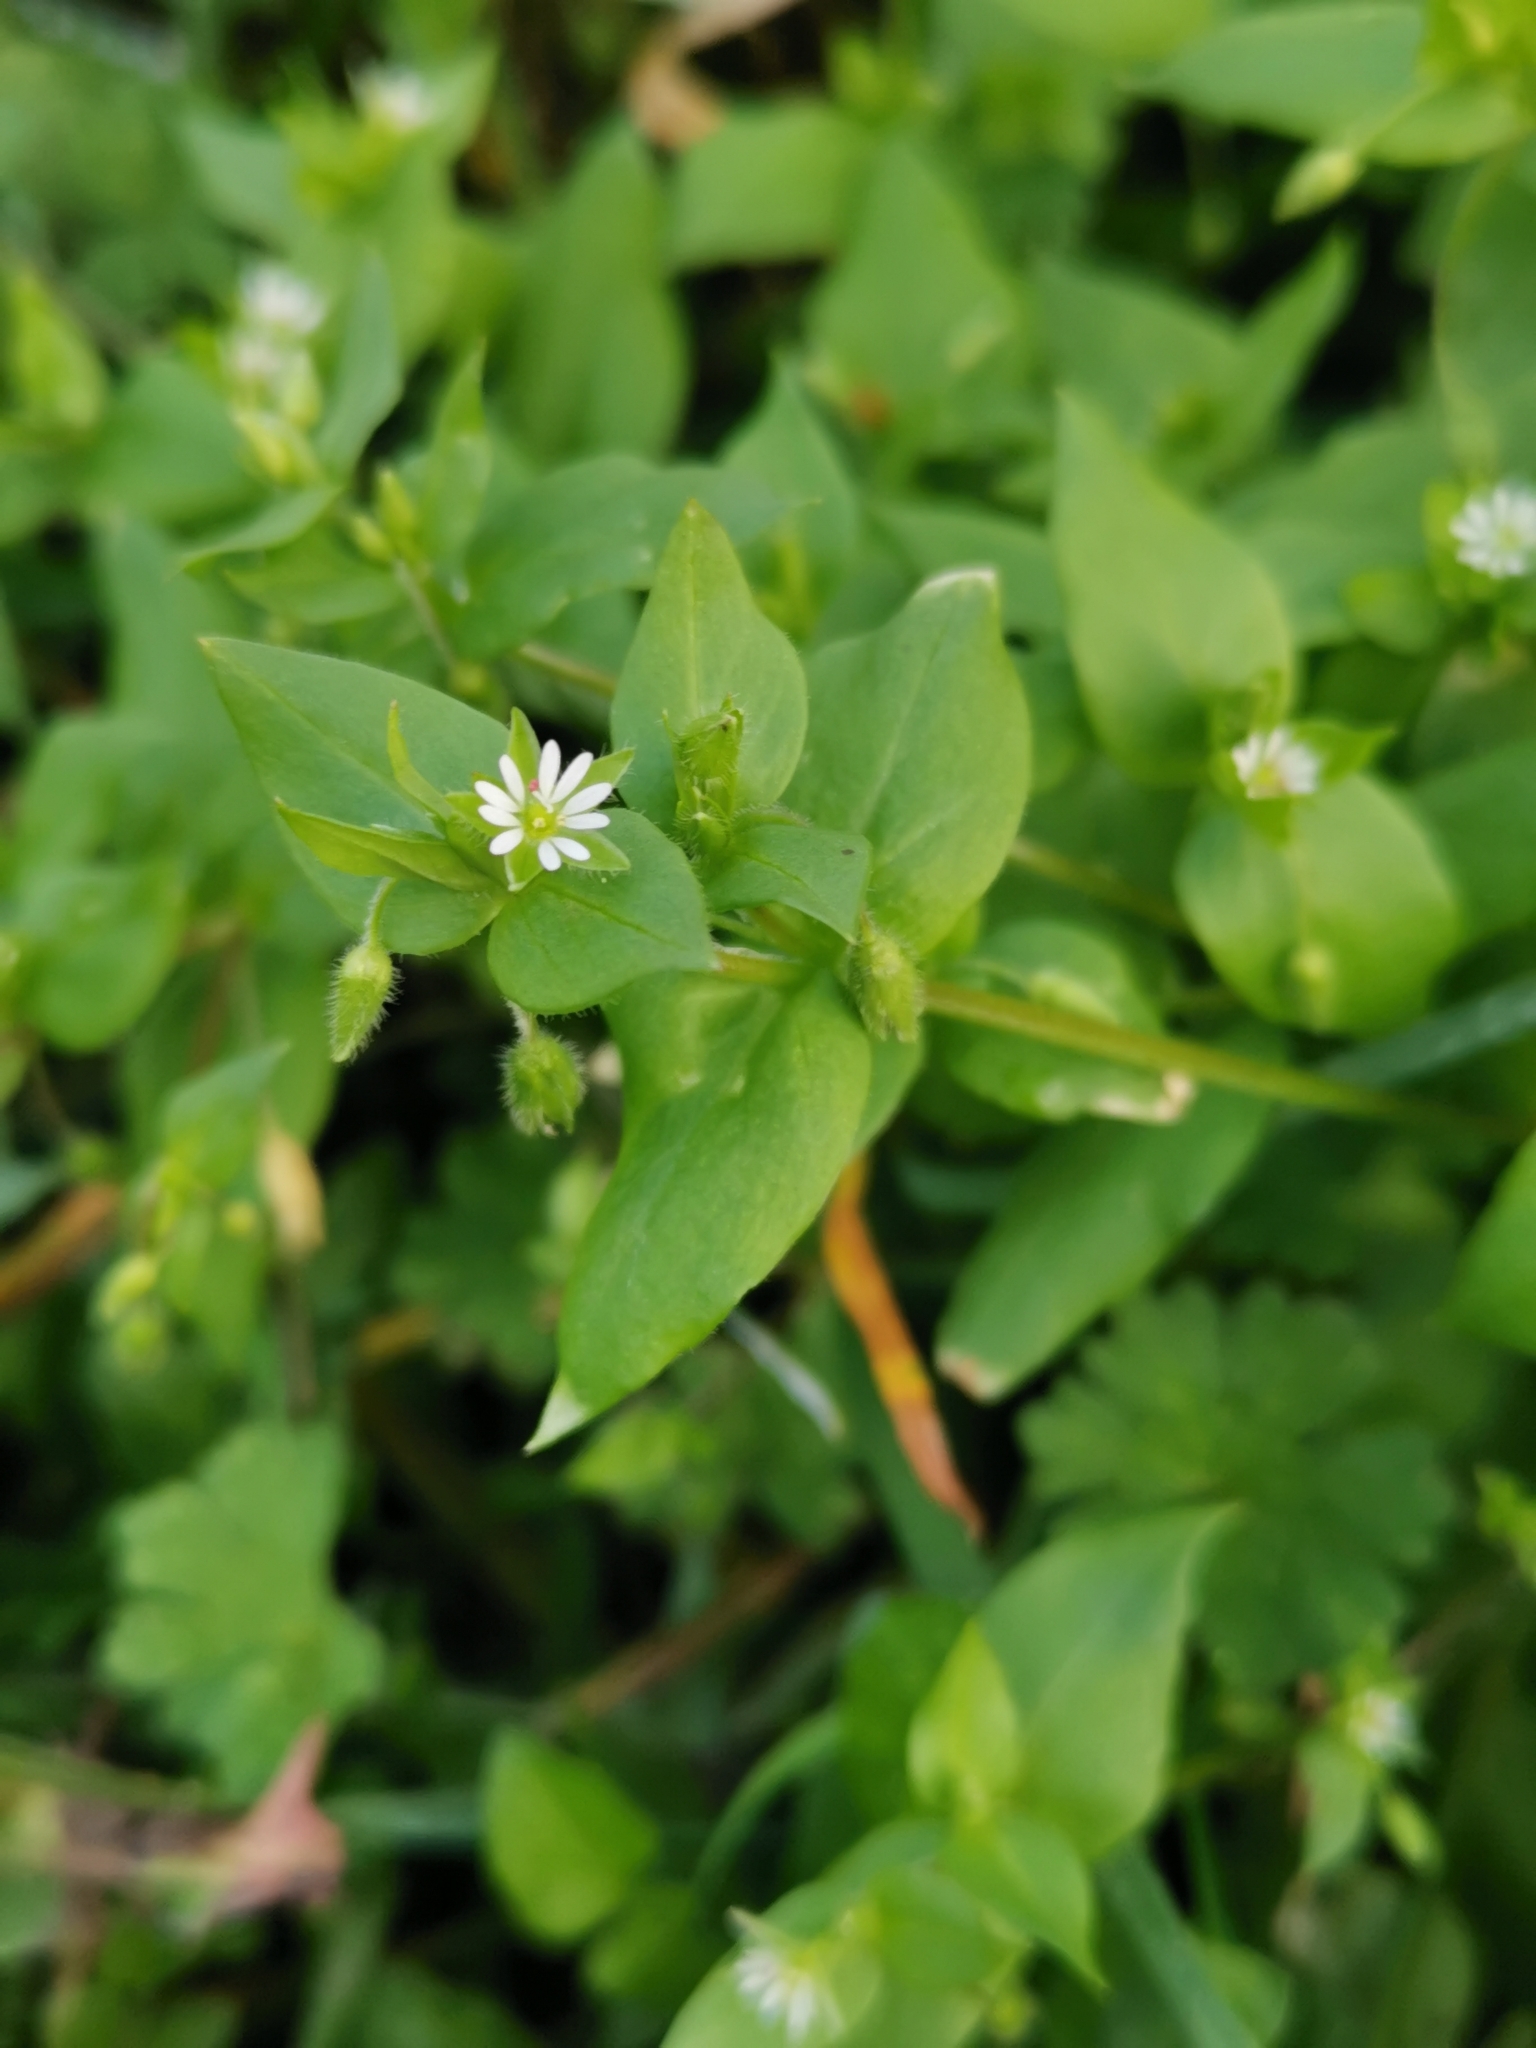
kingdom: Plantae
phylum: Tracheophyta
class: Magnoliopsida
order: Caryophyllales
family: Caryophyllaceae
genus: Stellaria
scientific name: Stellaria media
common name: Common chickweed
